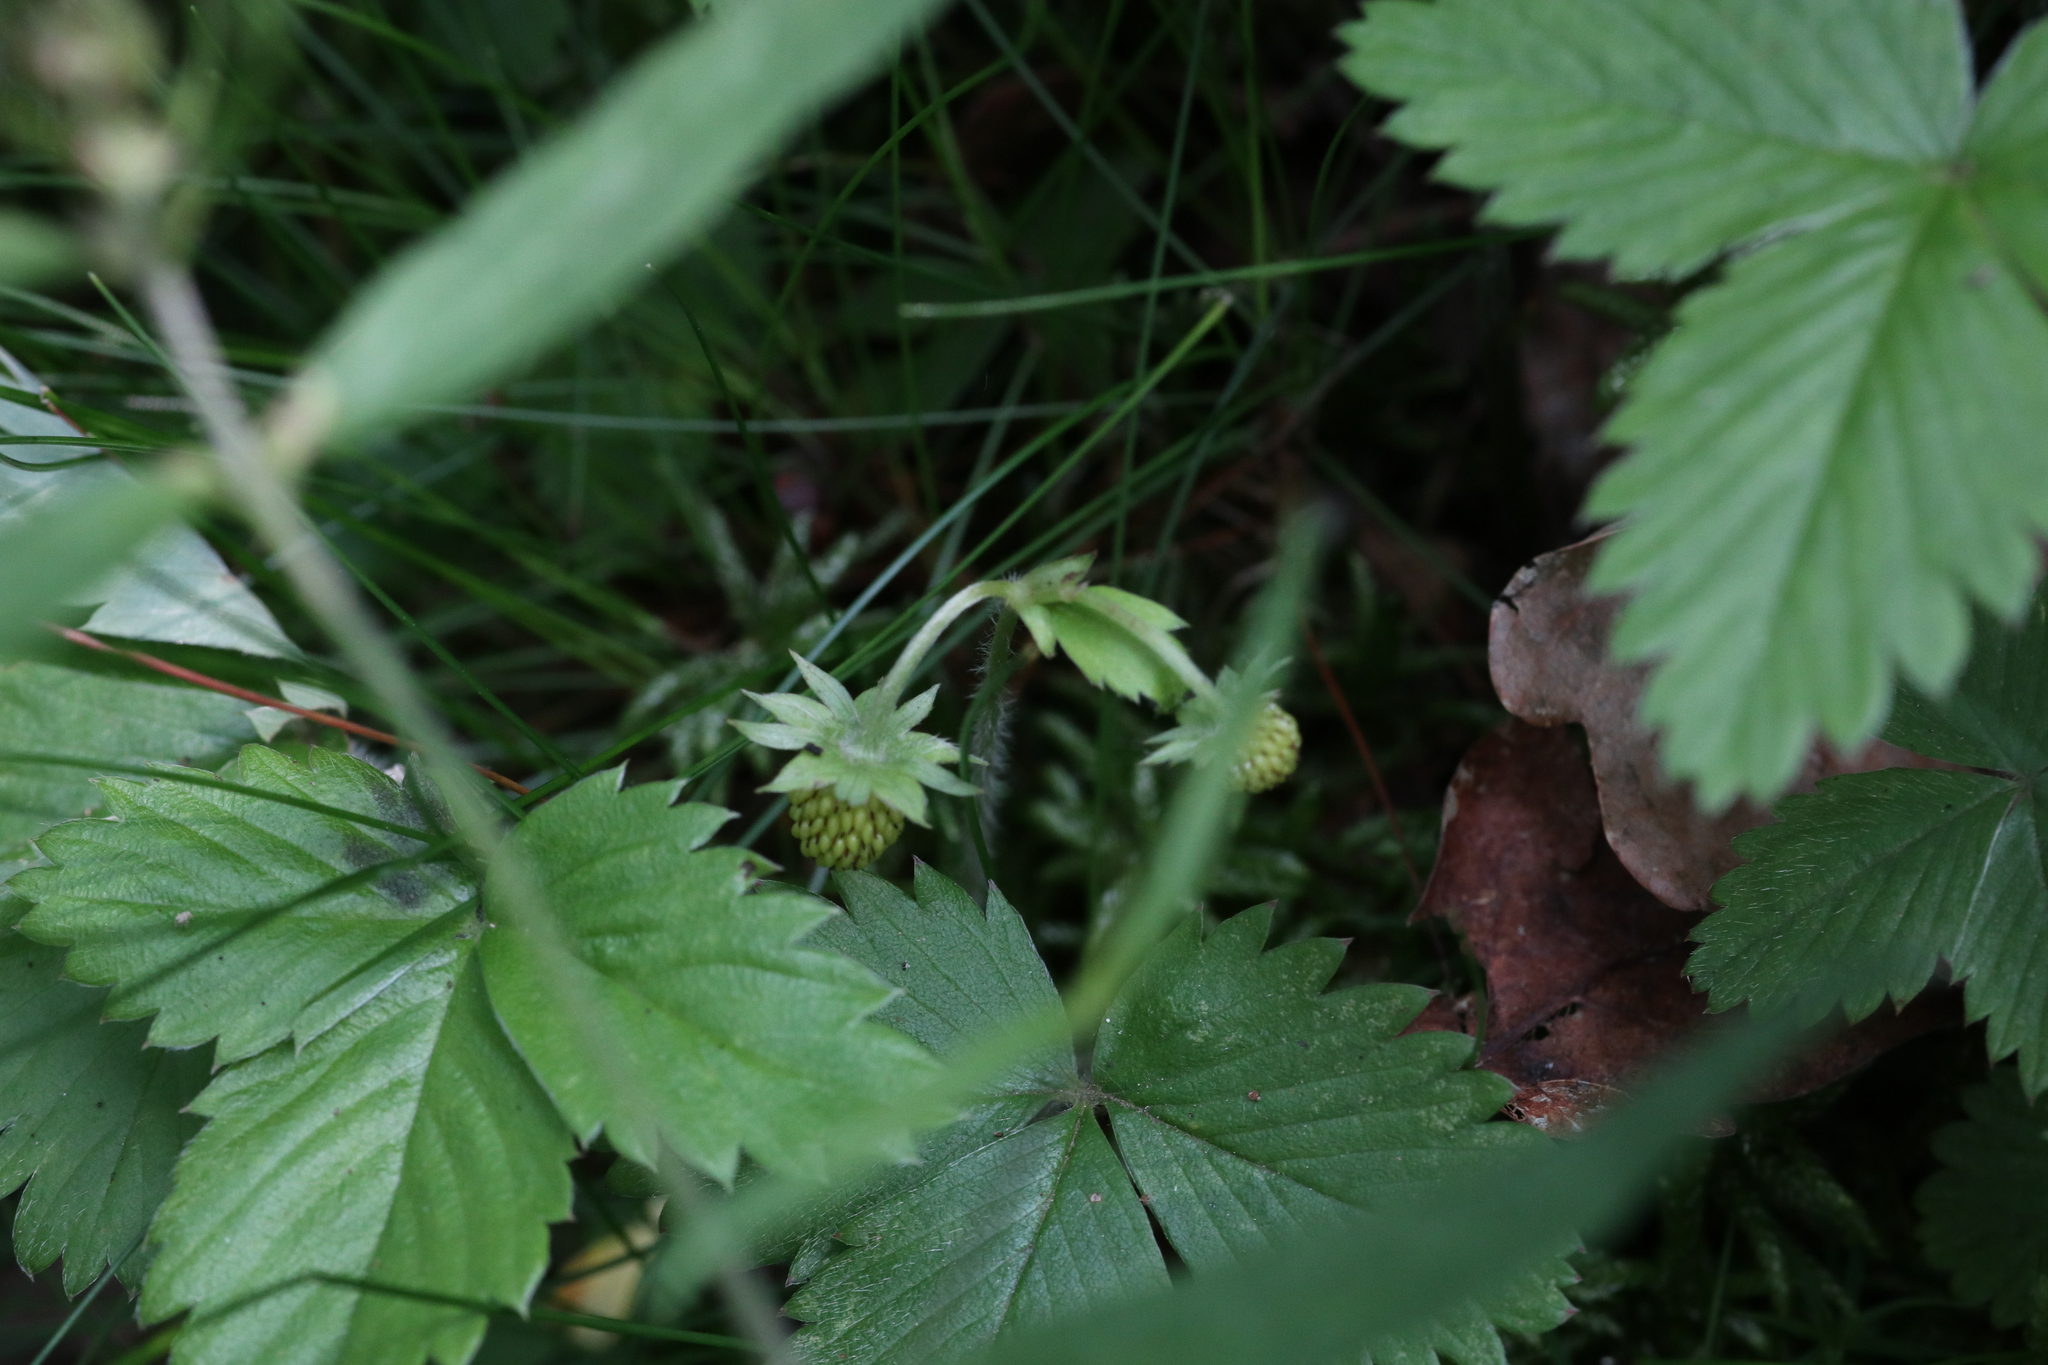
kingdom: Plantae
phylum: Tracheophyta
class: Magnoliopsida
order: Rosales
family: Rosaceae
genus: Fragaria
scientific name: Fragaria vesca
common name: Wild strawberry
